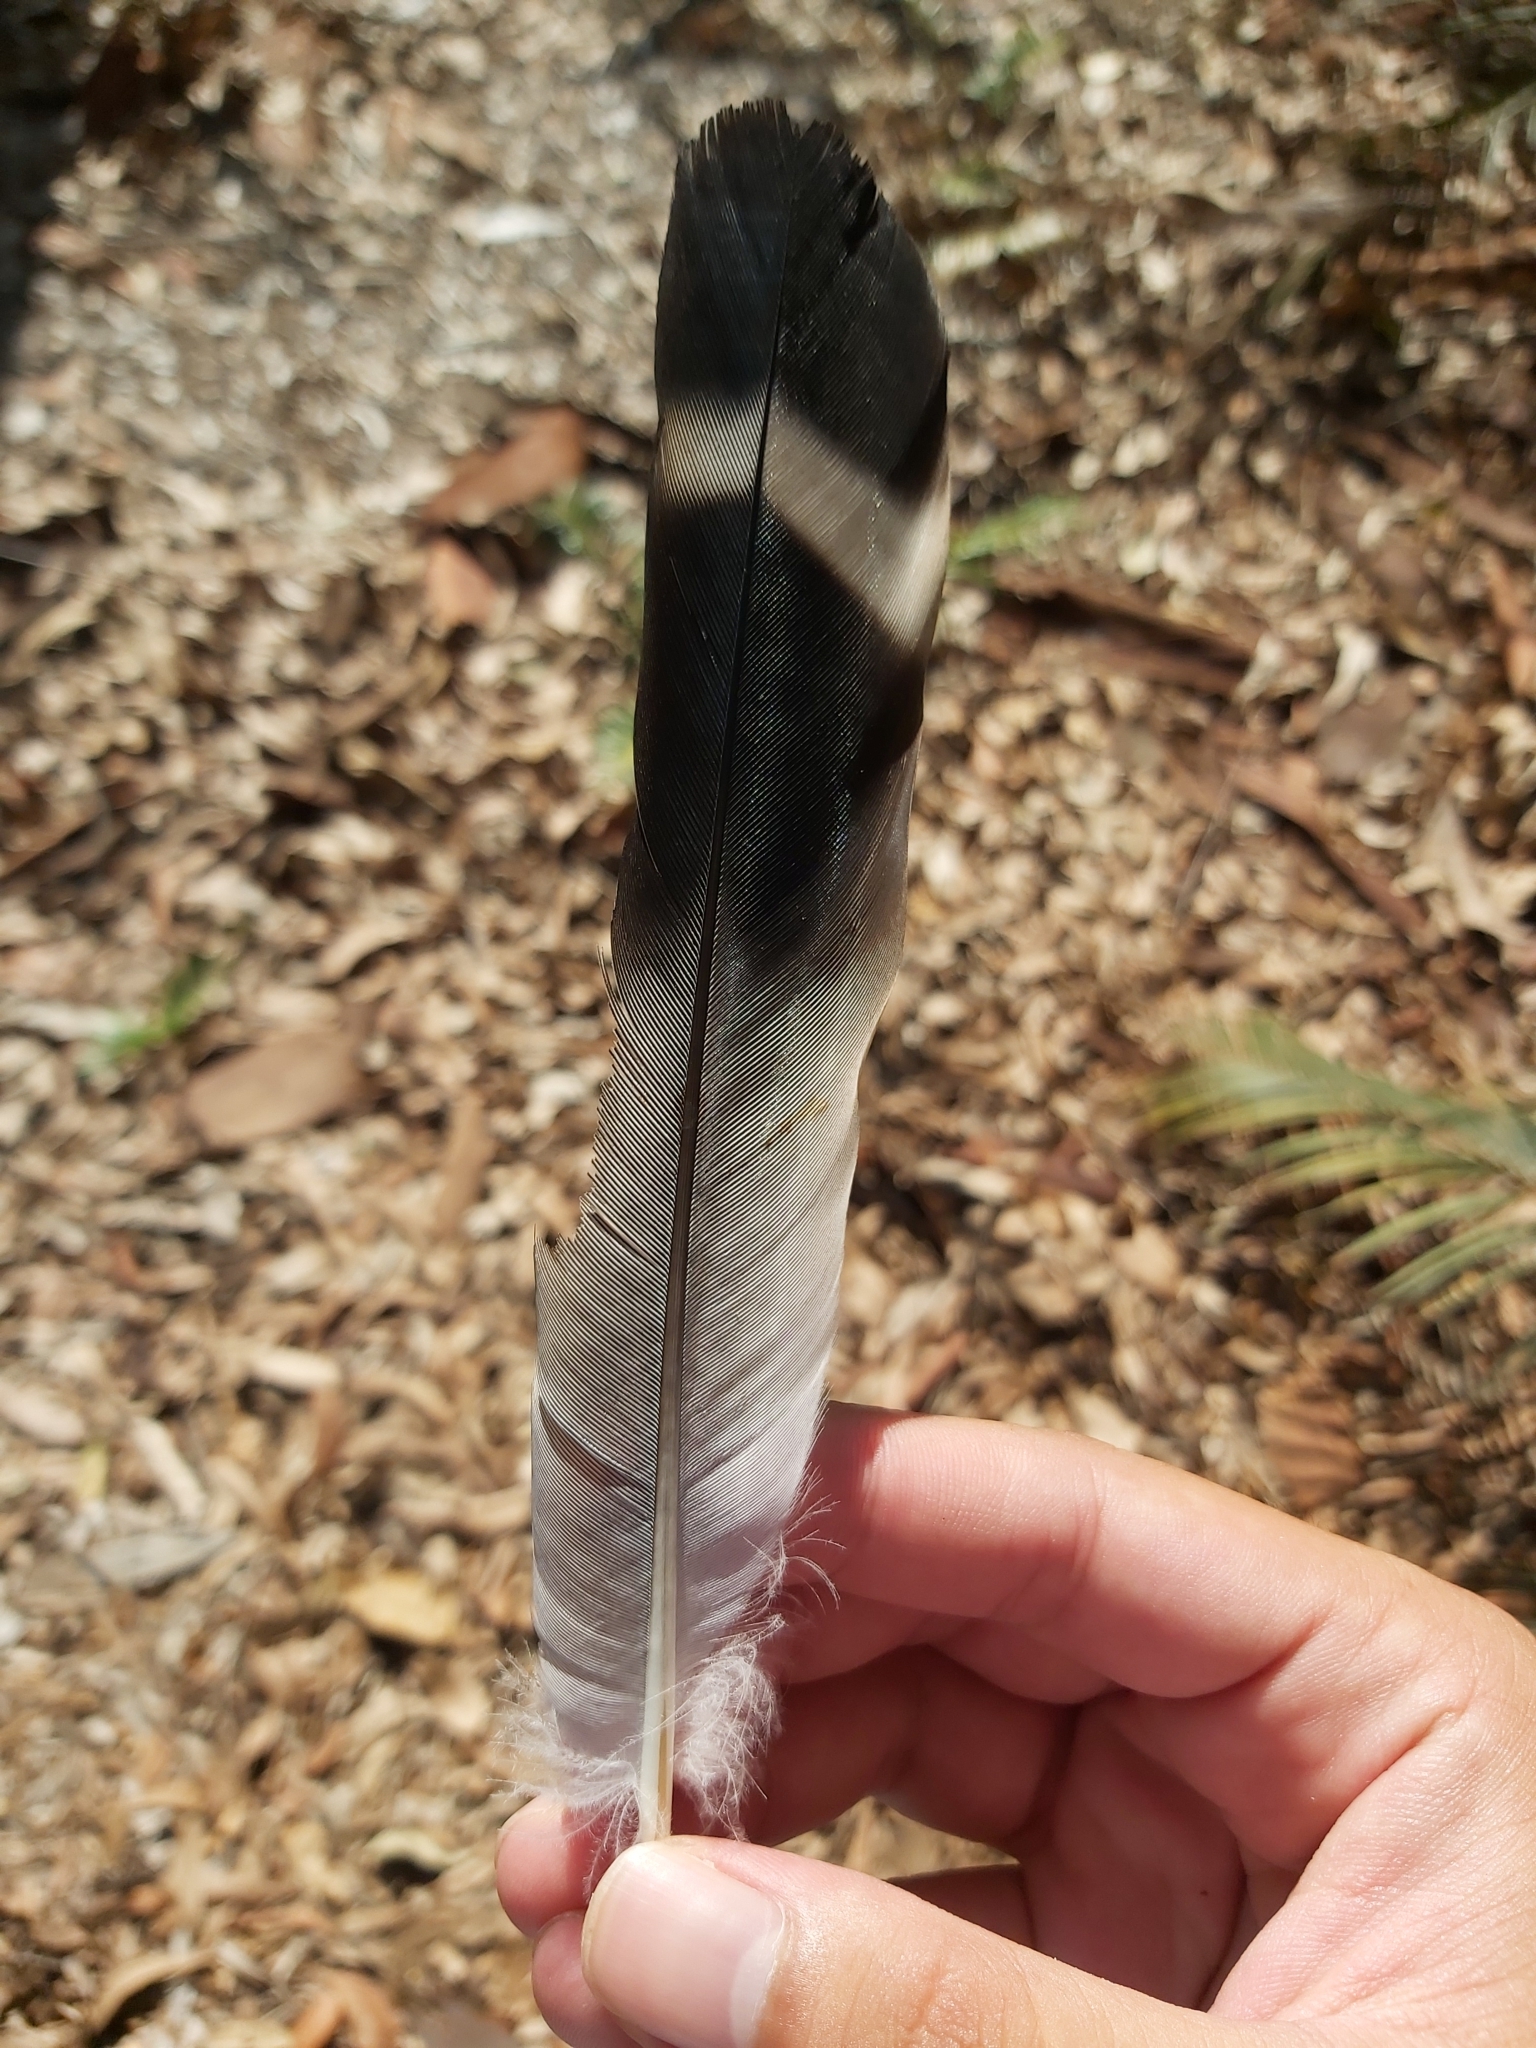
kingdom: Animalia
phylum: Chordata
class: Aves
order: Columbiformes
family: Columbidae
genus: Lopholaimus
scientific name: Lopholaimus antarcticus
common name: Topknot pigeon
